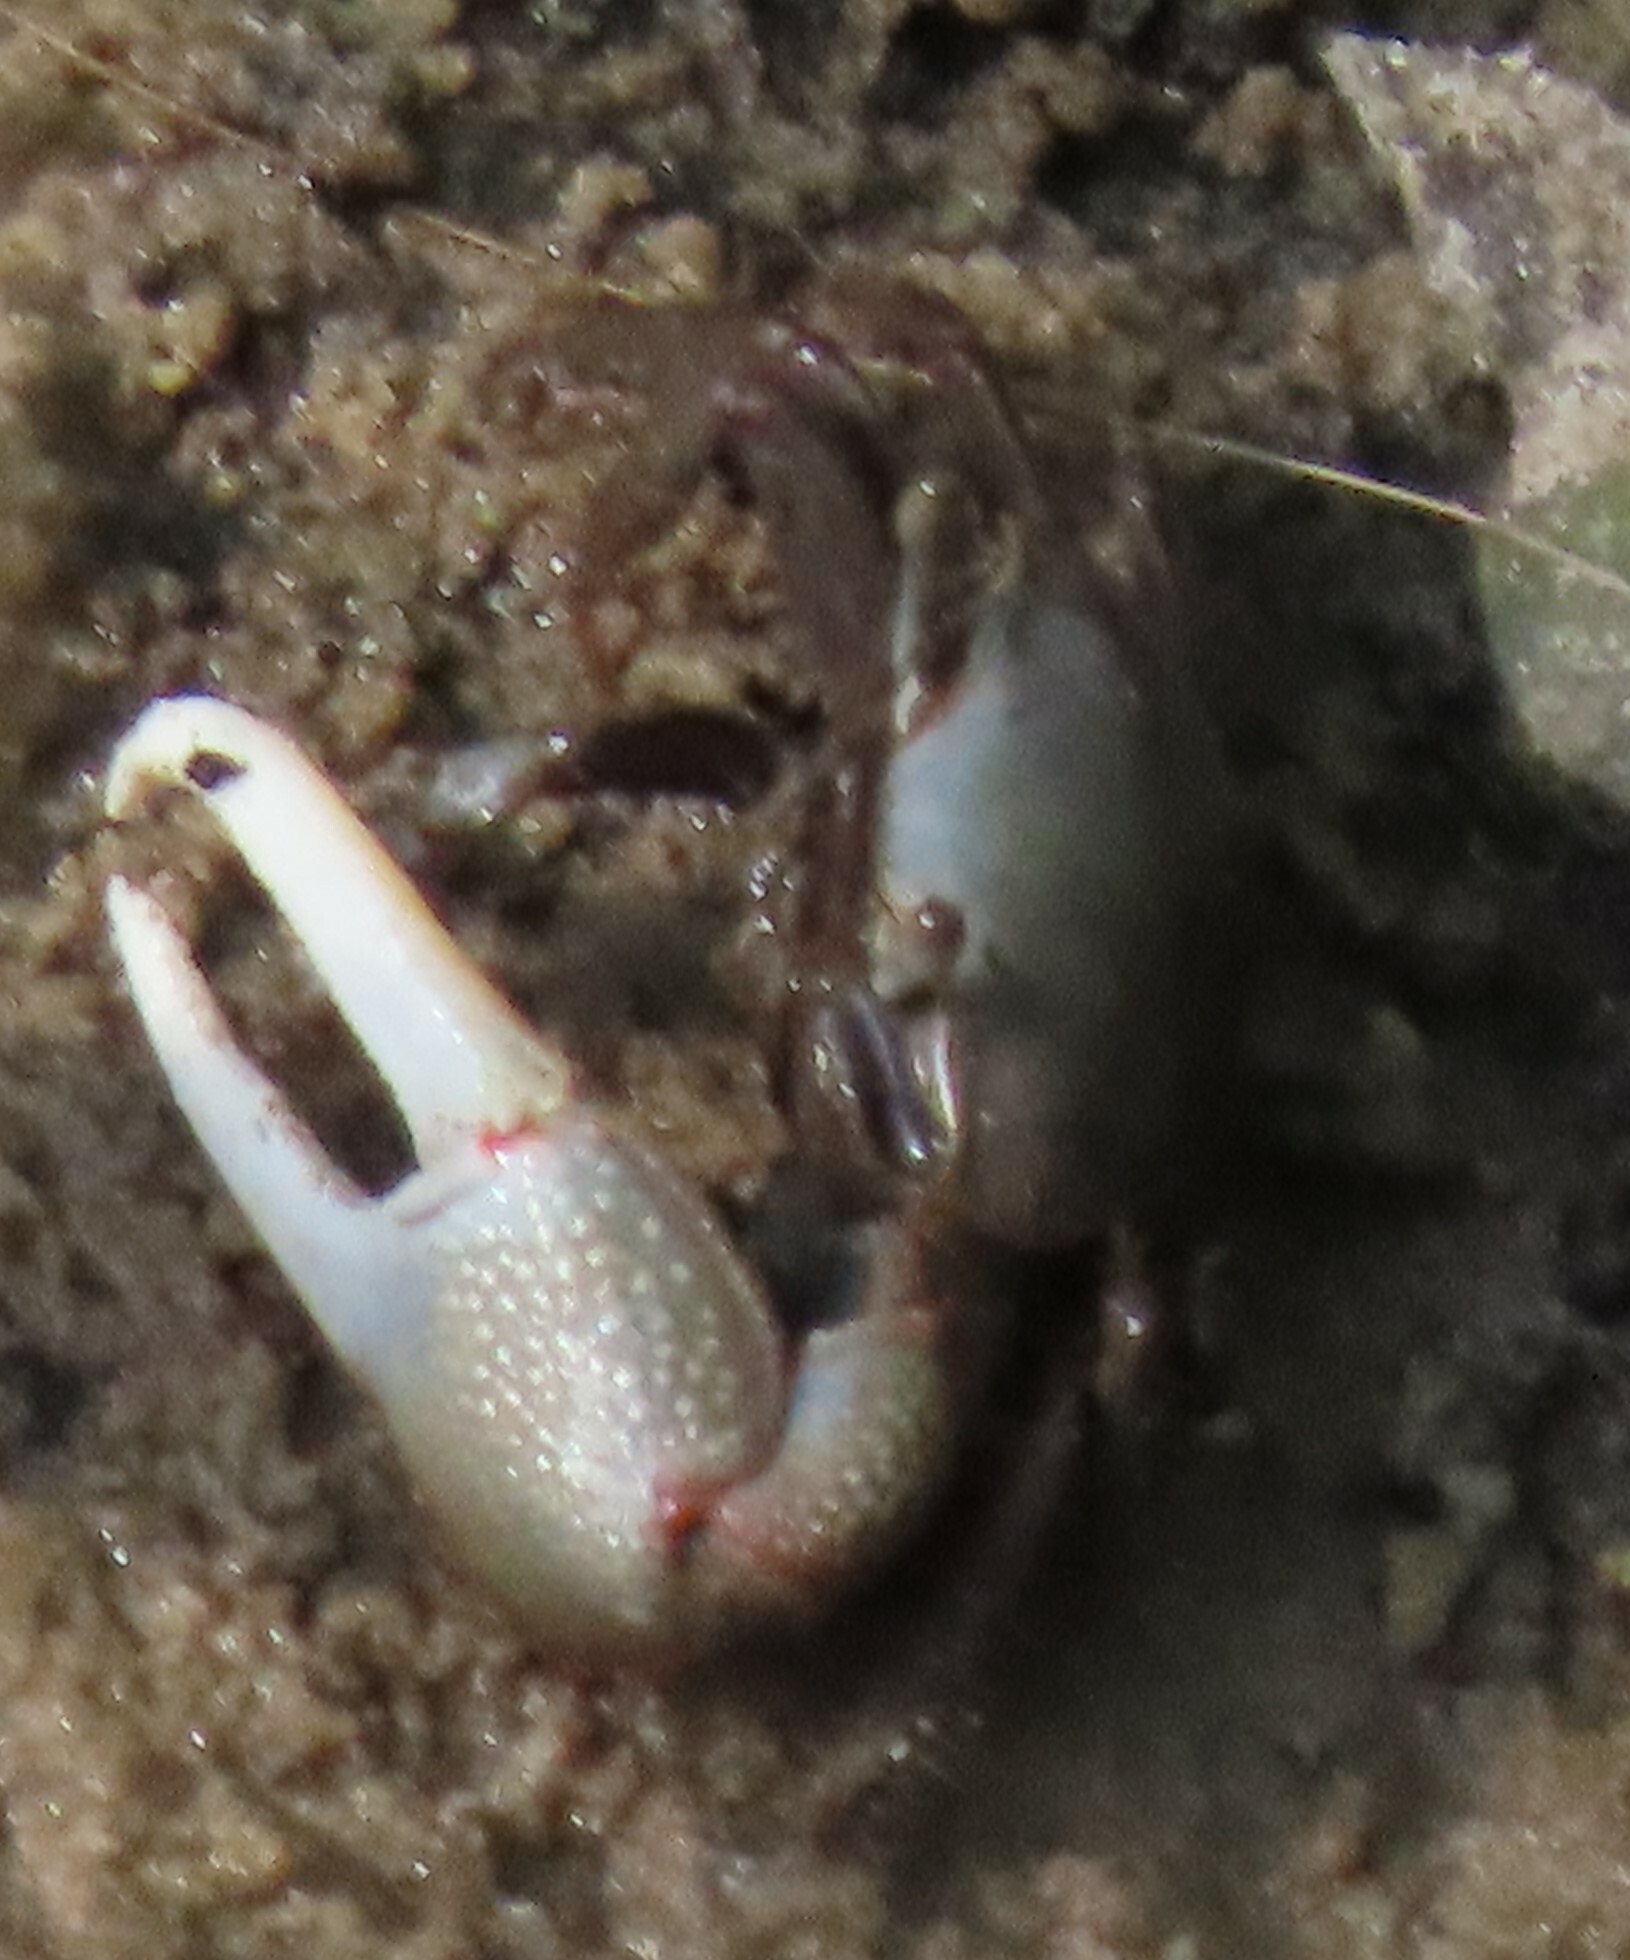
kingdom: Animalia
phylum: Arthropoda
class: Malacostraca
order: Decapoda
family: Ocypodidae
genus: Minuca
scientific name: Minuca minax
